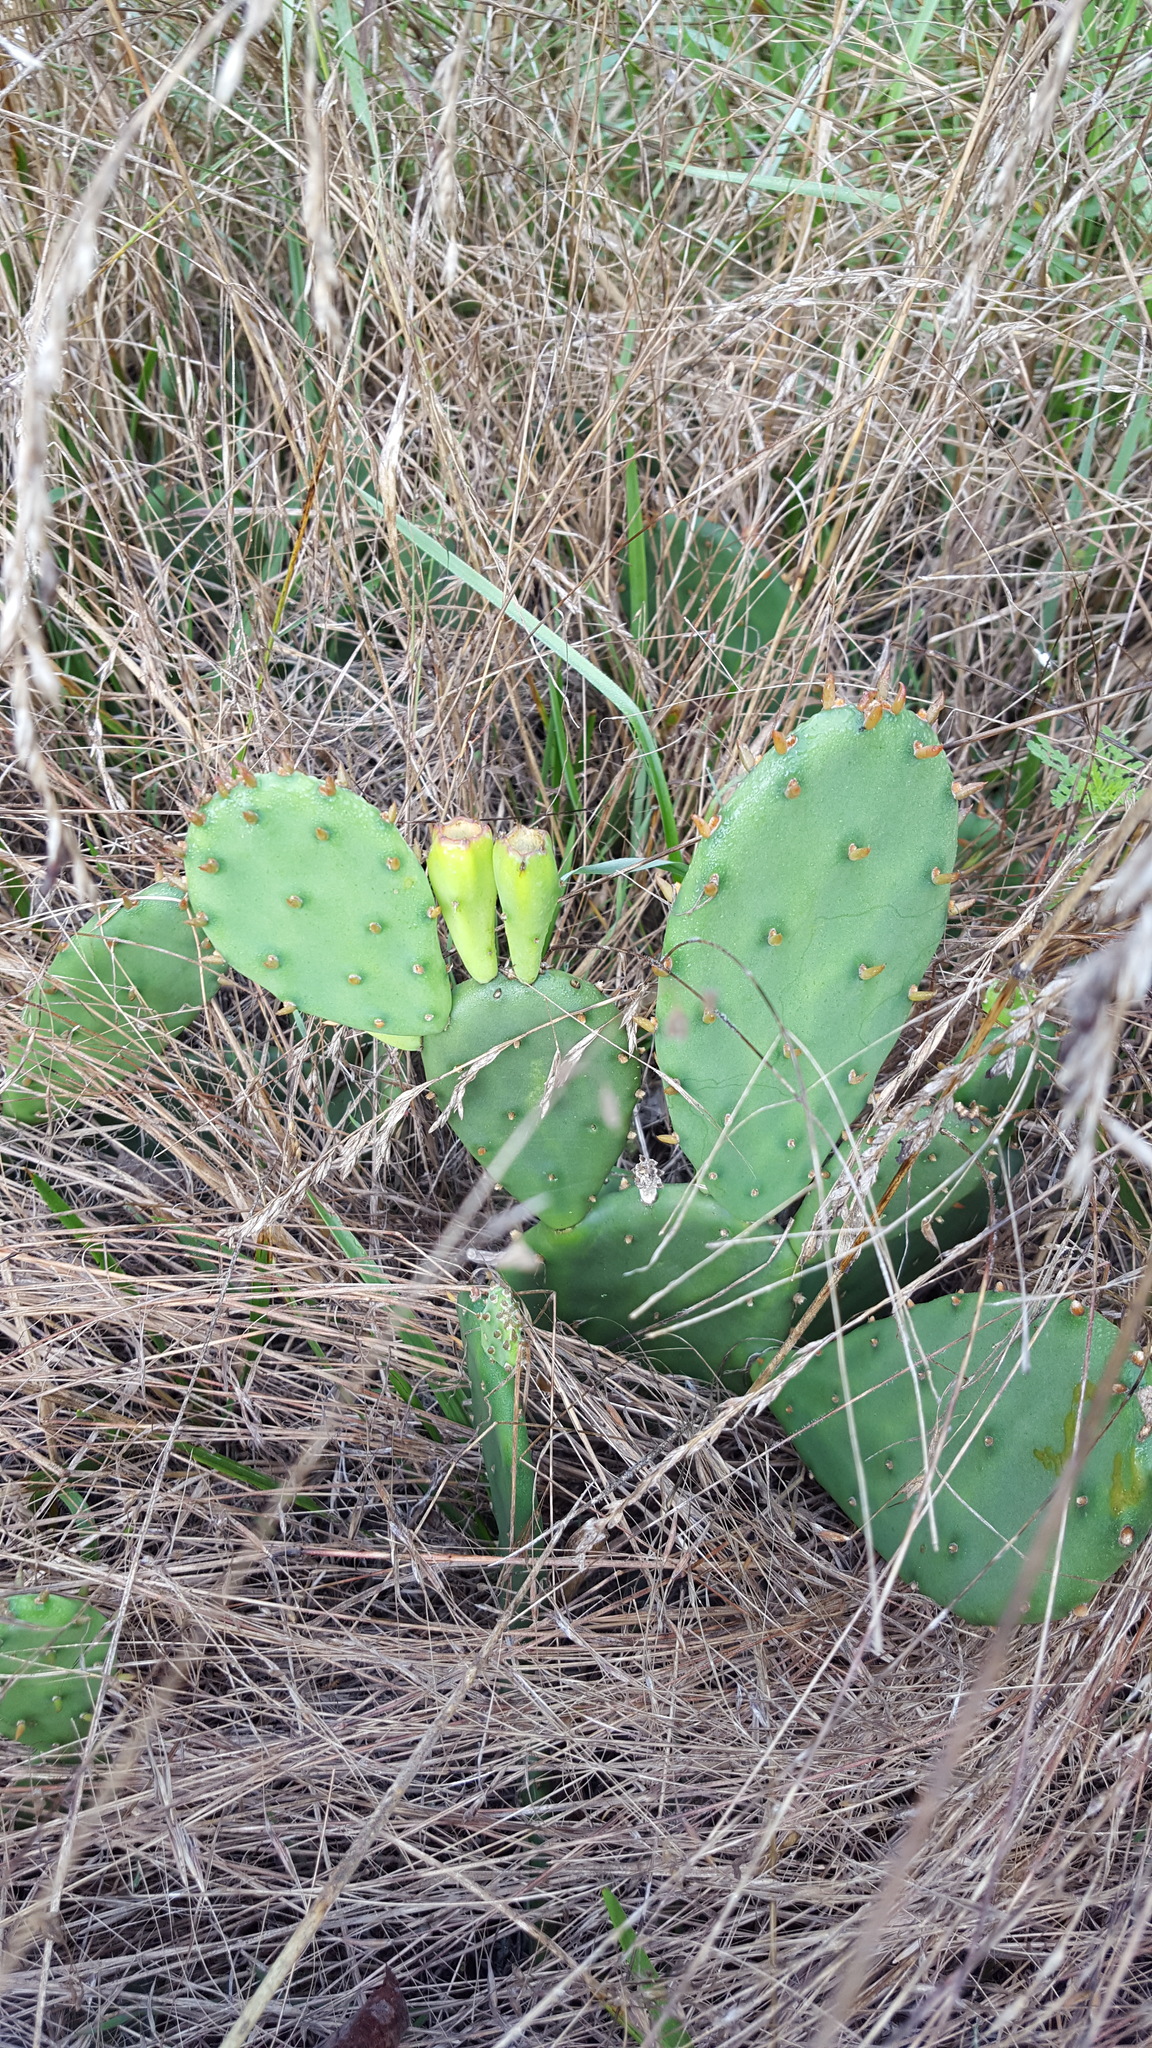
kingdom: Plantae
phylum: Tracheophyta
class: Magnoliopsida
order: Caryophyllales
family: Cactaceae
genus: Opuntia
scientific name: Opuntia humifusa
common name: Eastern prickly-pear
